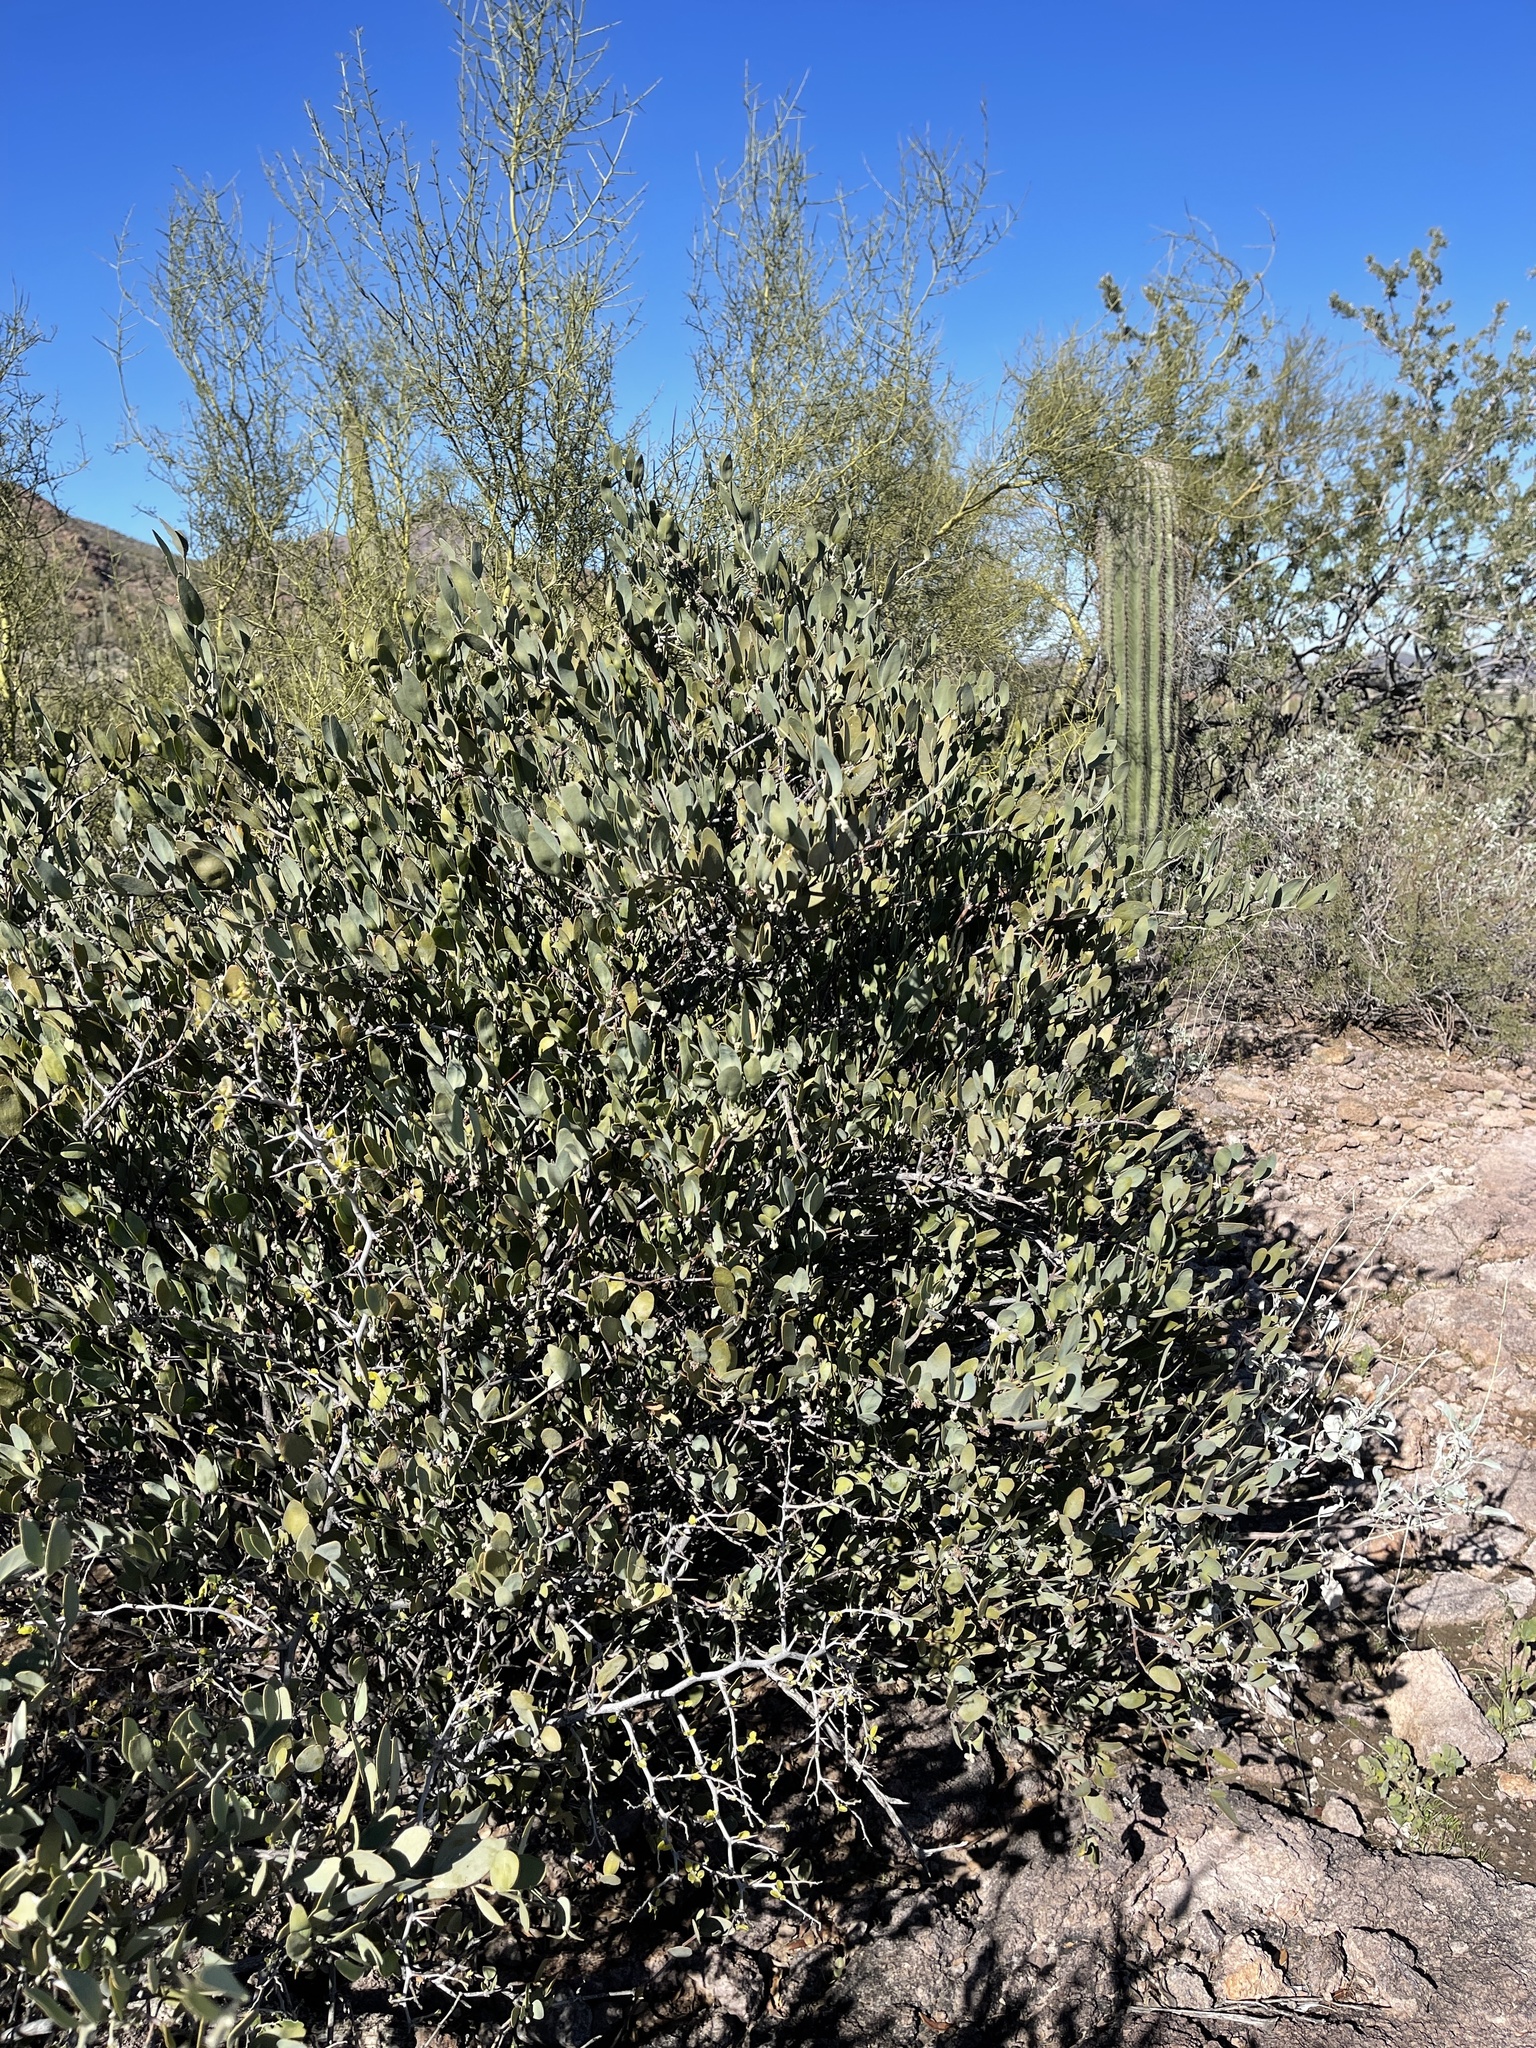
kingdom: Plantae
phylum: Tracheophyta
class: Magnoliopsida
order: Caryophyllales
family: Simmondsiaceae
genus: Simmondsia
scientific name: Simmondsia chinensis
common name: Jojoba
